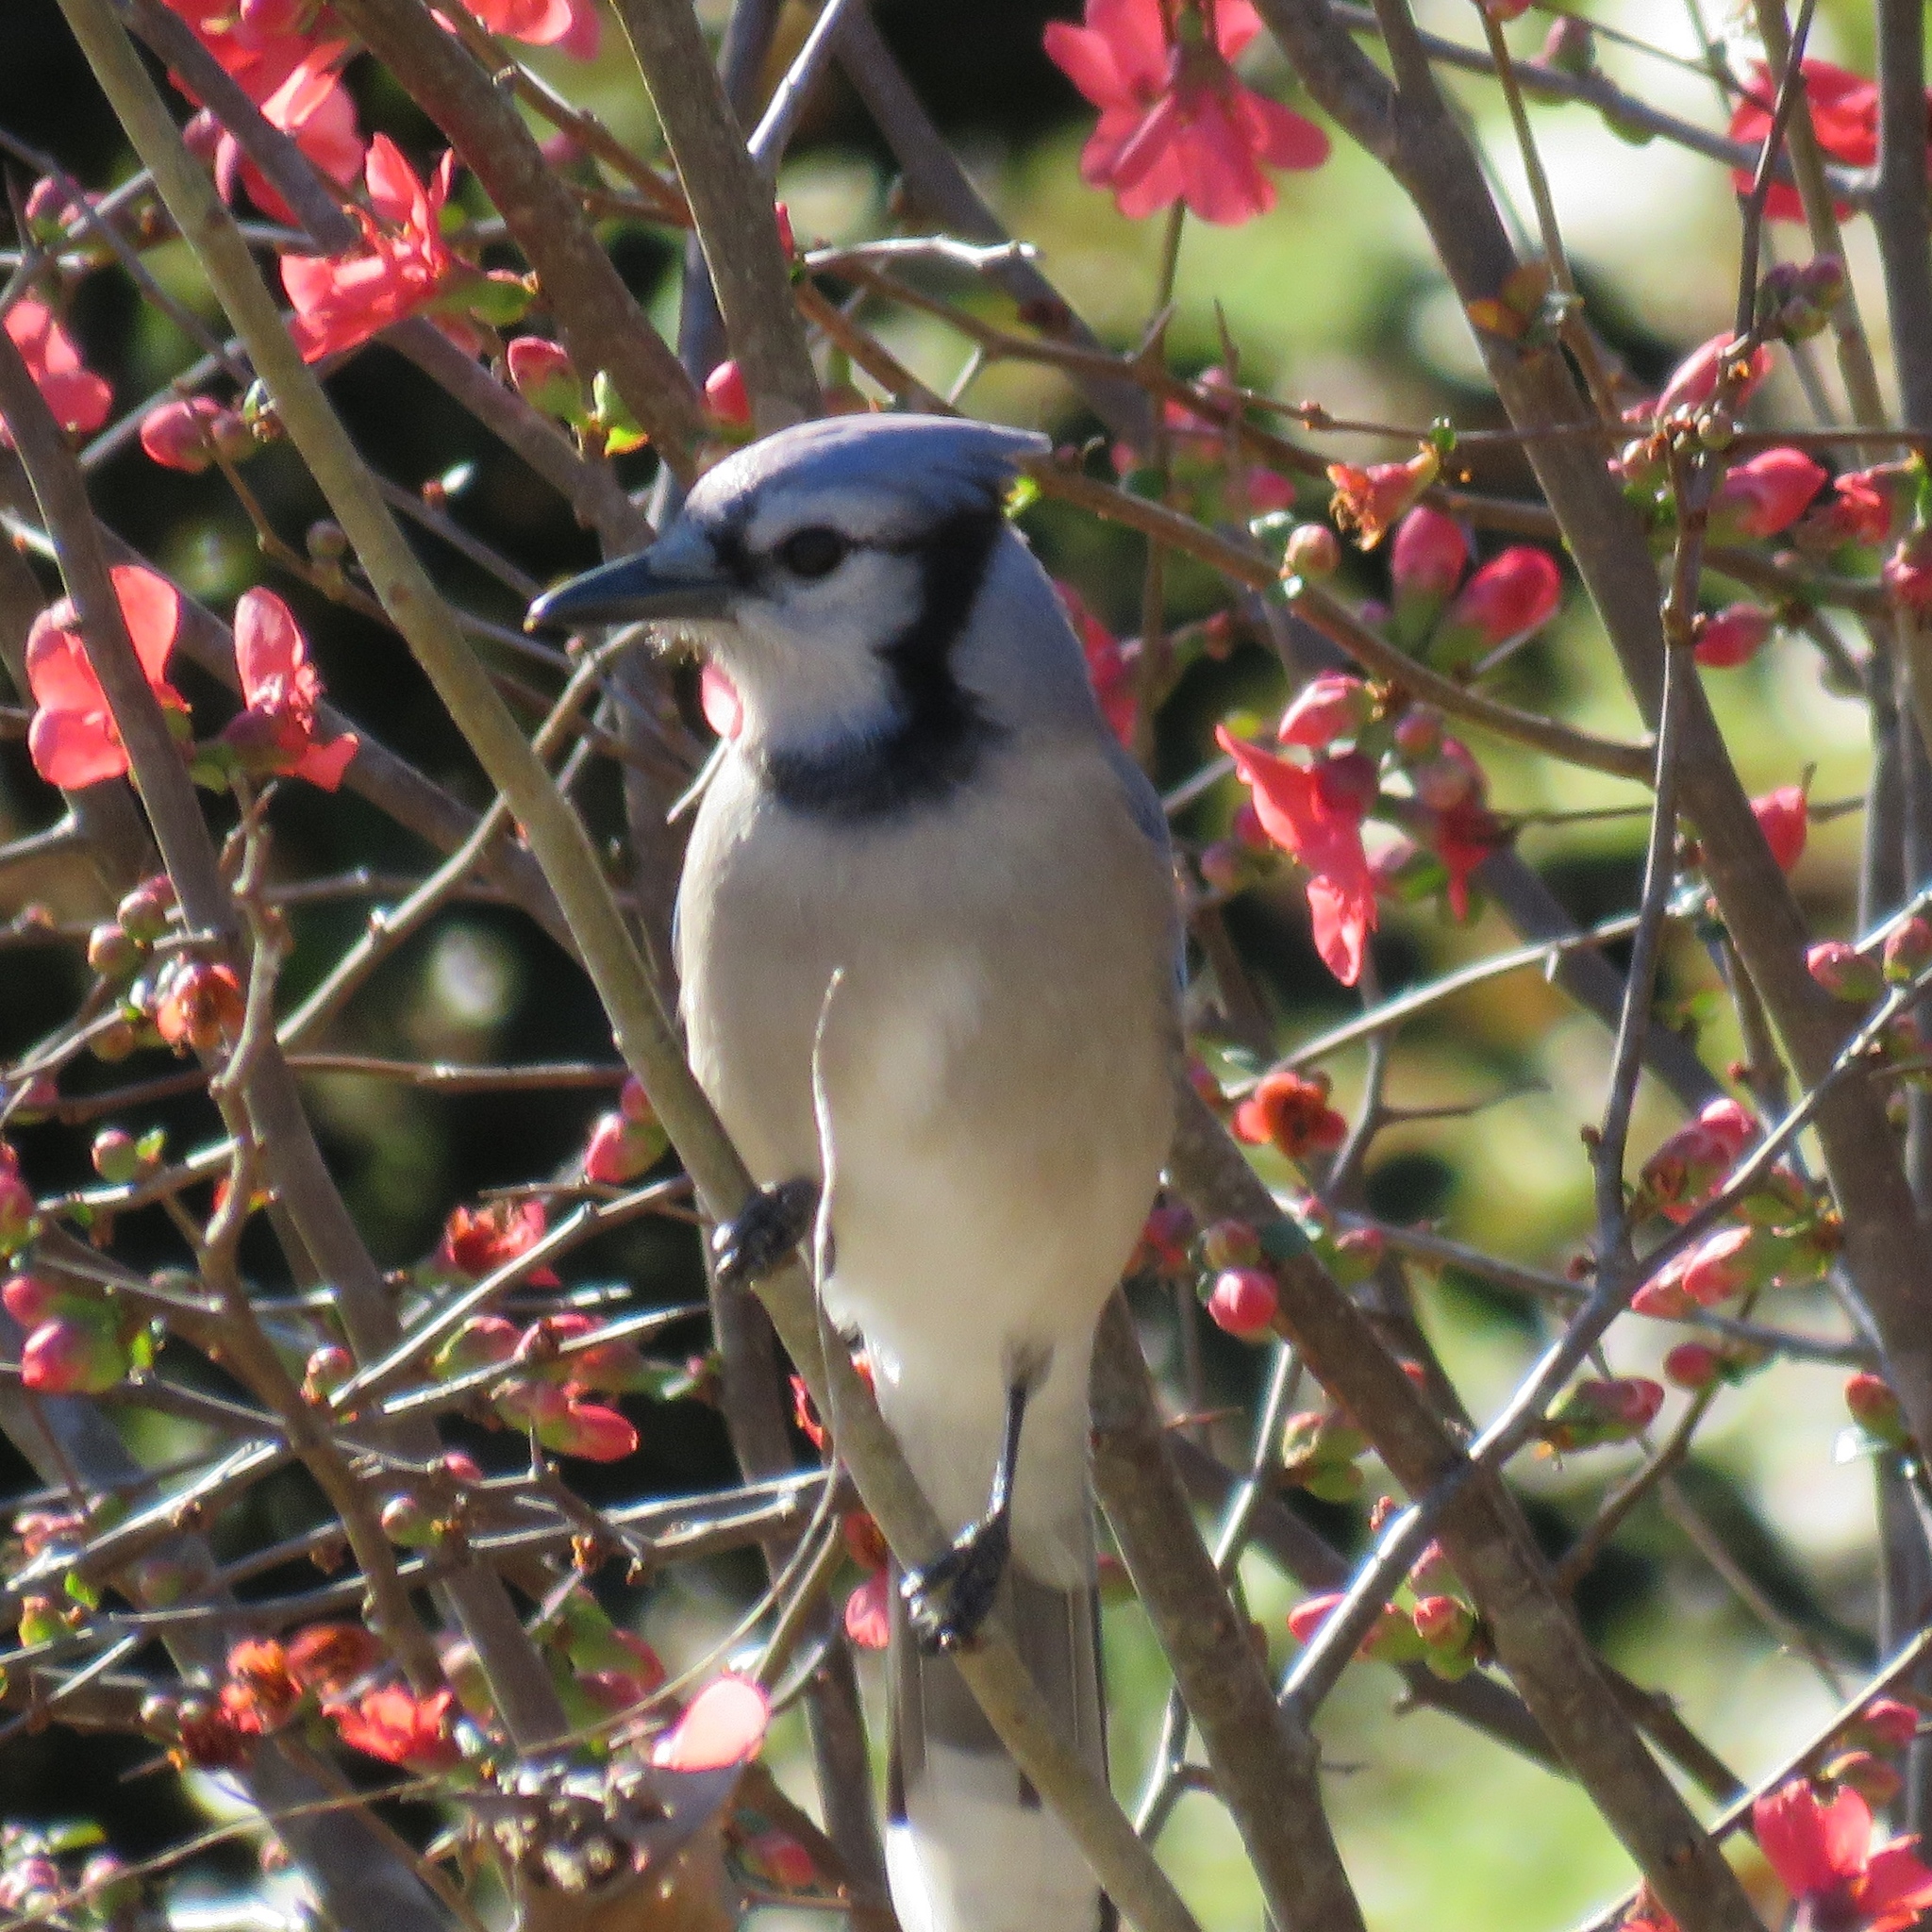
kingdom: Animalia
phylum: Chordata
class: Aves
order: Passeriformes
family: Corvidae
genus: Cyanocitta
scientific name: Cyanocitta cristata
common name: Blue jay
